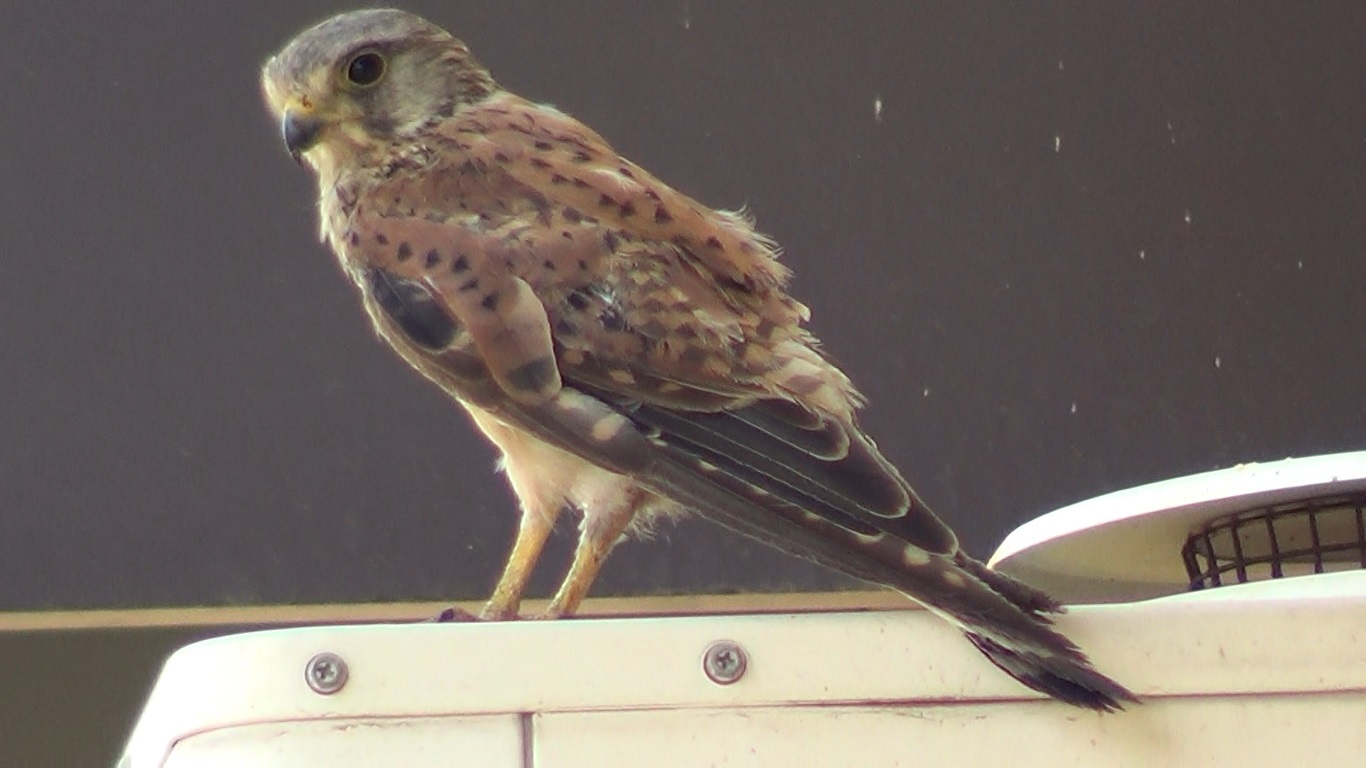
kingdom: Animalia
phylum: Chordata
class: Aves
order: Falconiformes
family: Falconidae
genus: Falco
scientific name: Falco tinnunculus
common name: Common kestrel
